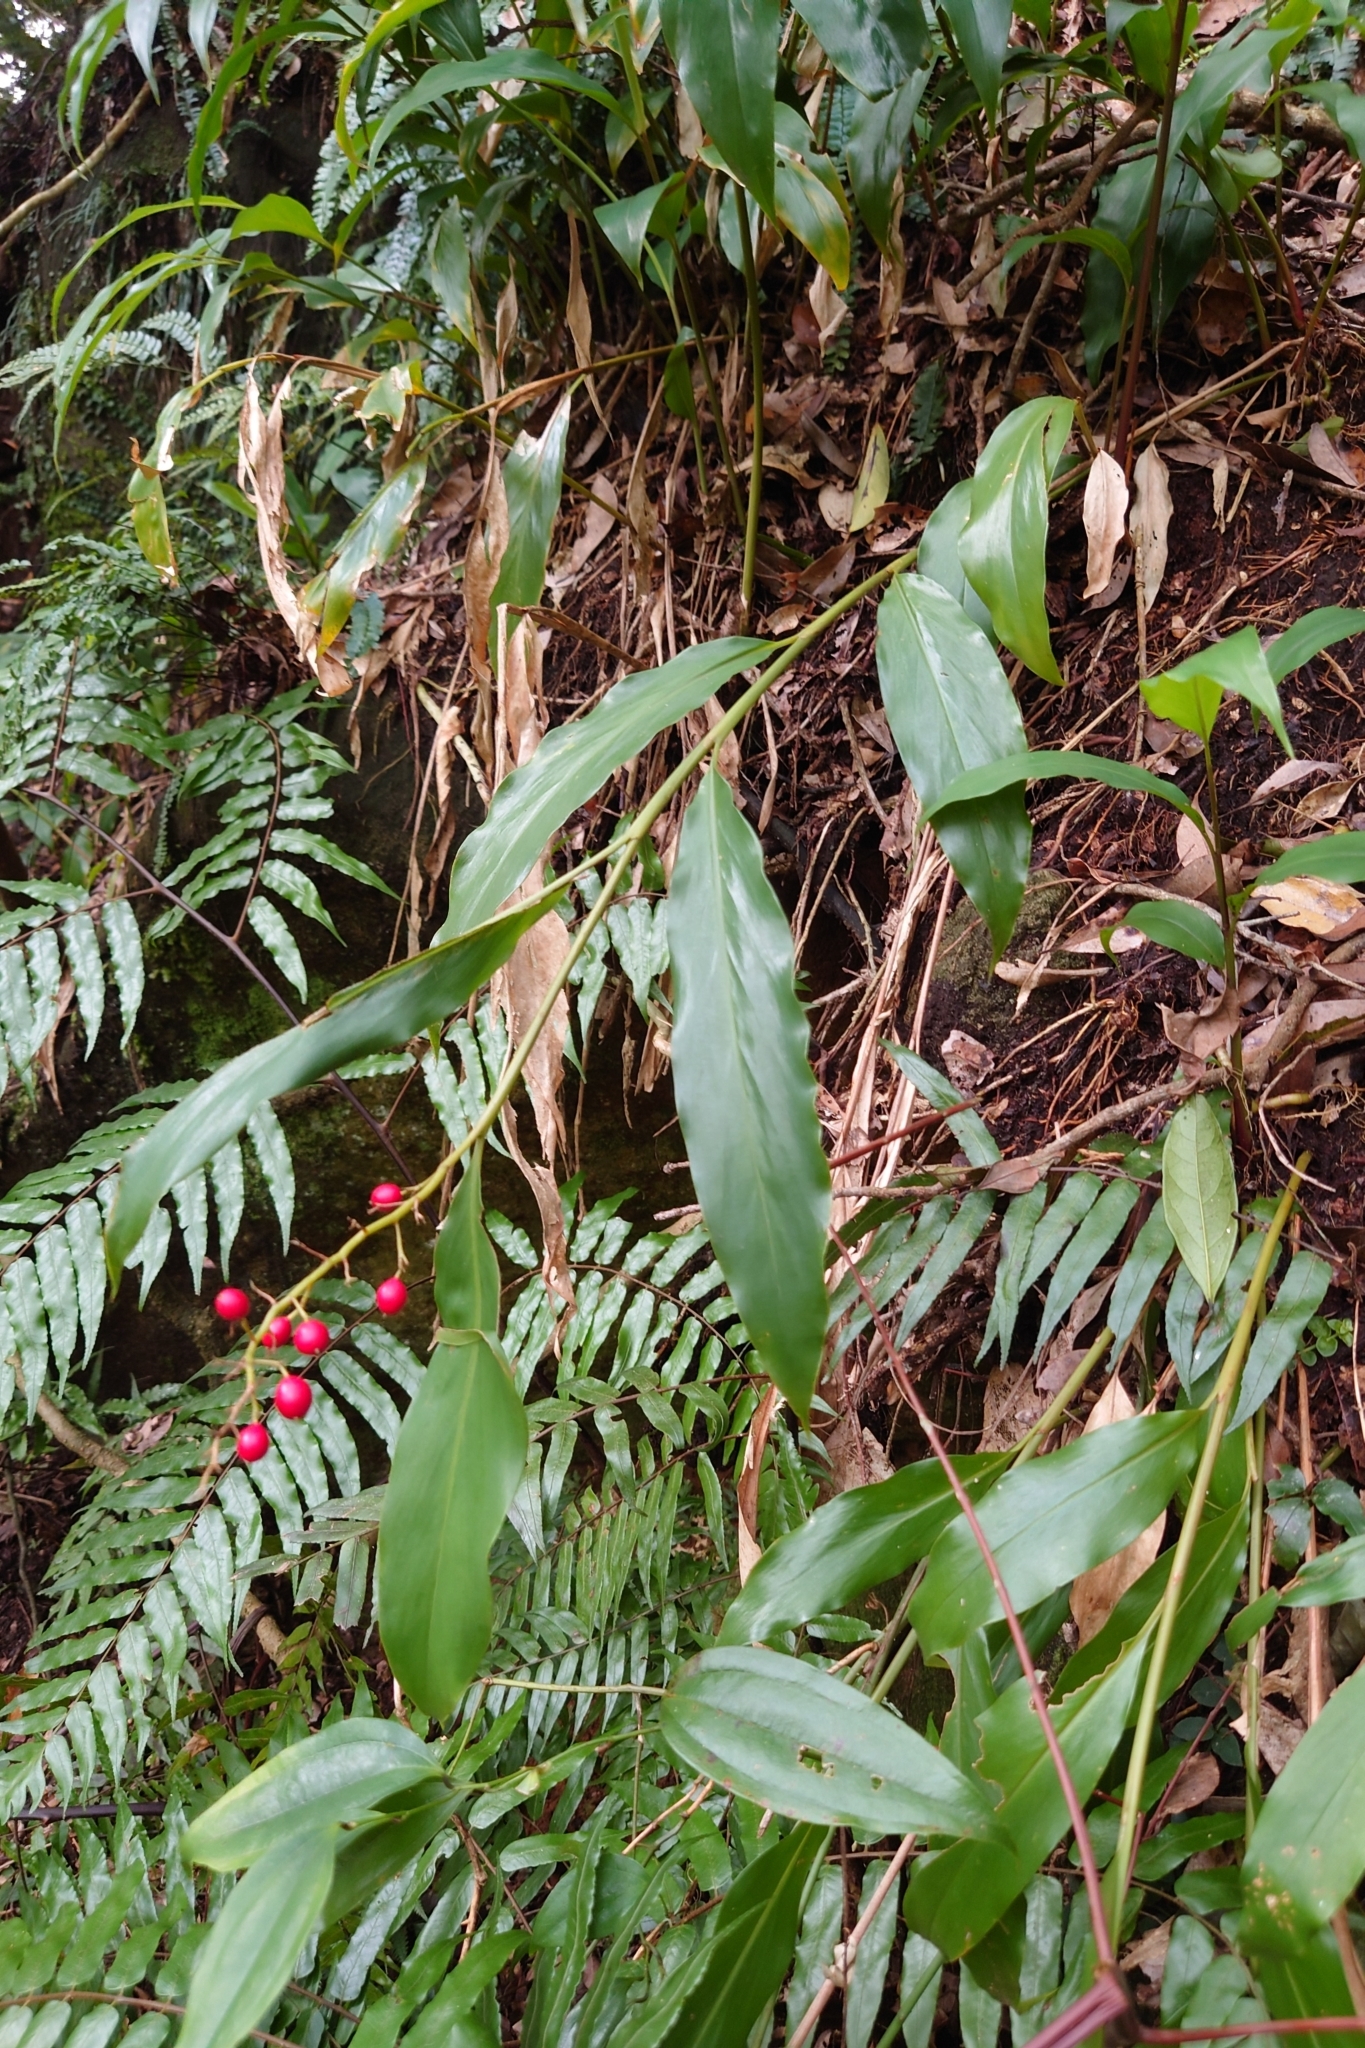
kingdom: Plantae
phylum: Tracheophyta
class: Liliopsida
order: Zingiberales
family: Zingiberaceae
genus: Alpinia
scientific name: Alpinia intermedia
